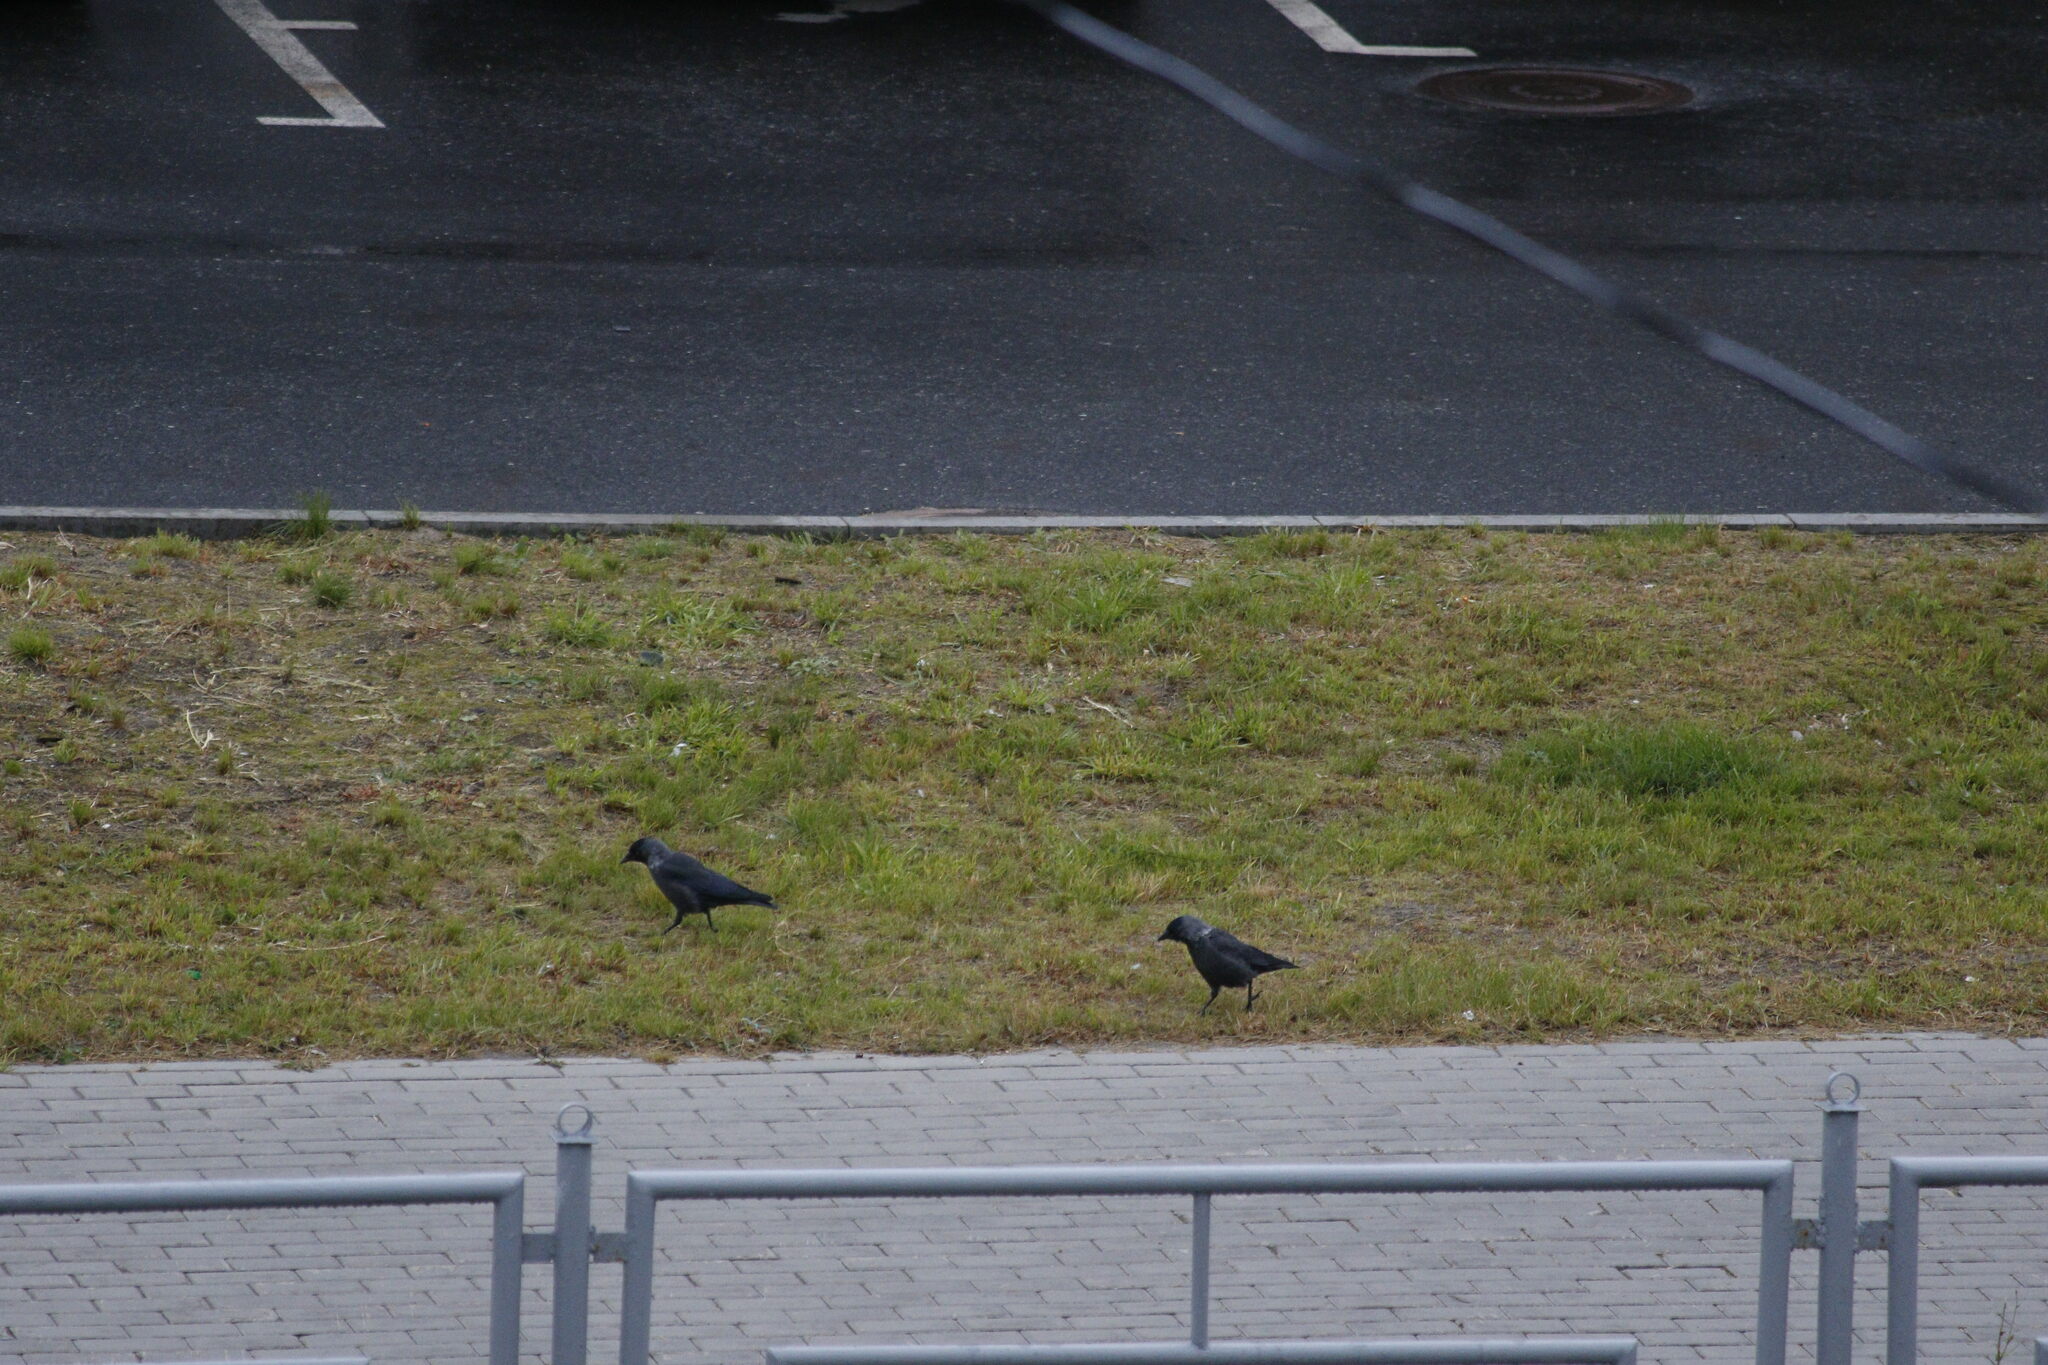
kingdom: Animalia
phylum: Chordata
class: Aves
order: Passeriformes
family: Corvidae
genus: Coloeus
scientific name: Coloeus monedula
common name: Western jackdaw
